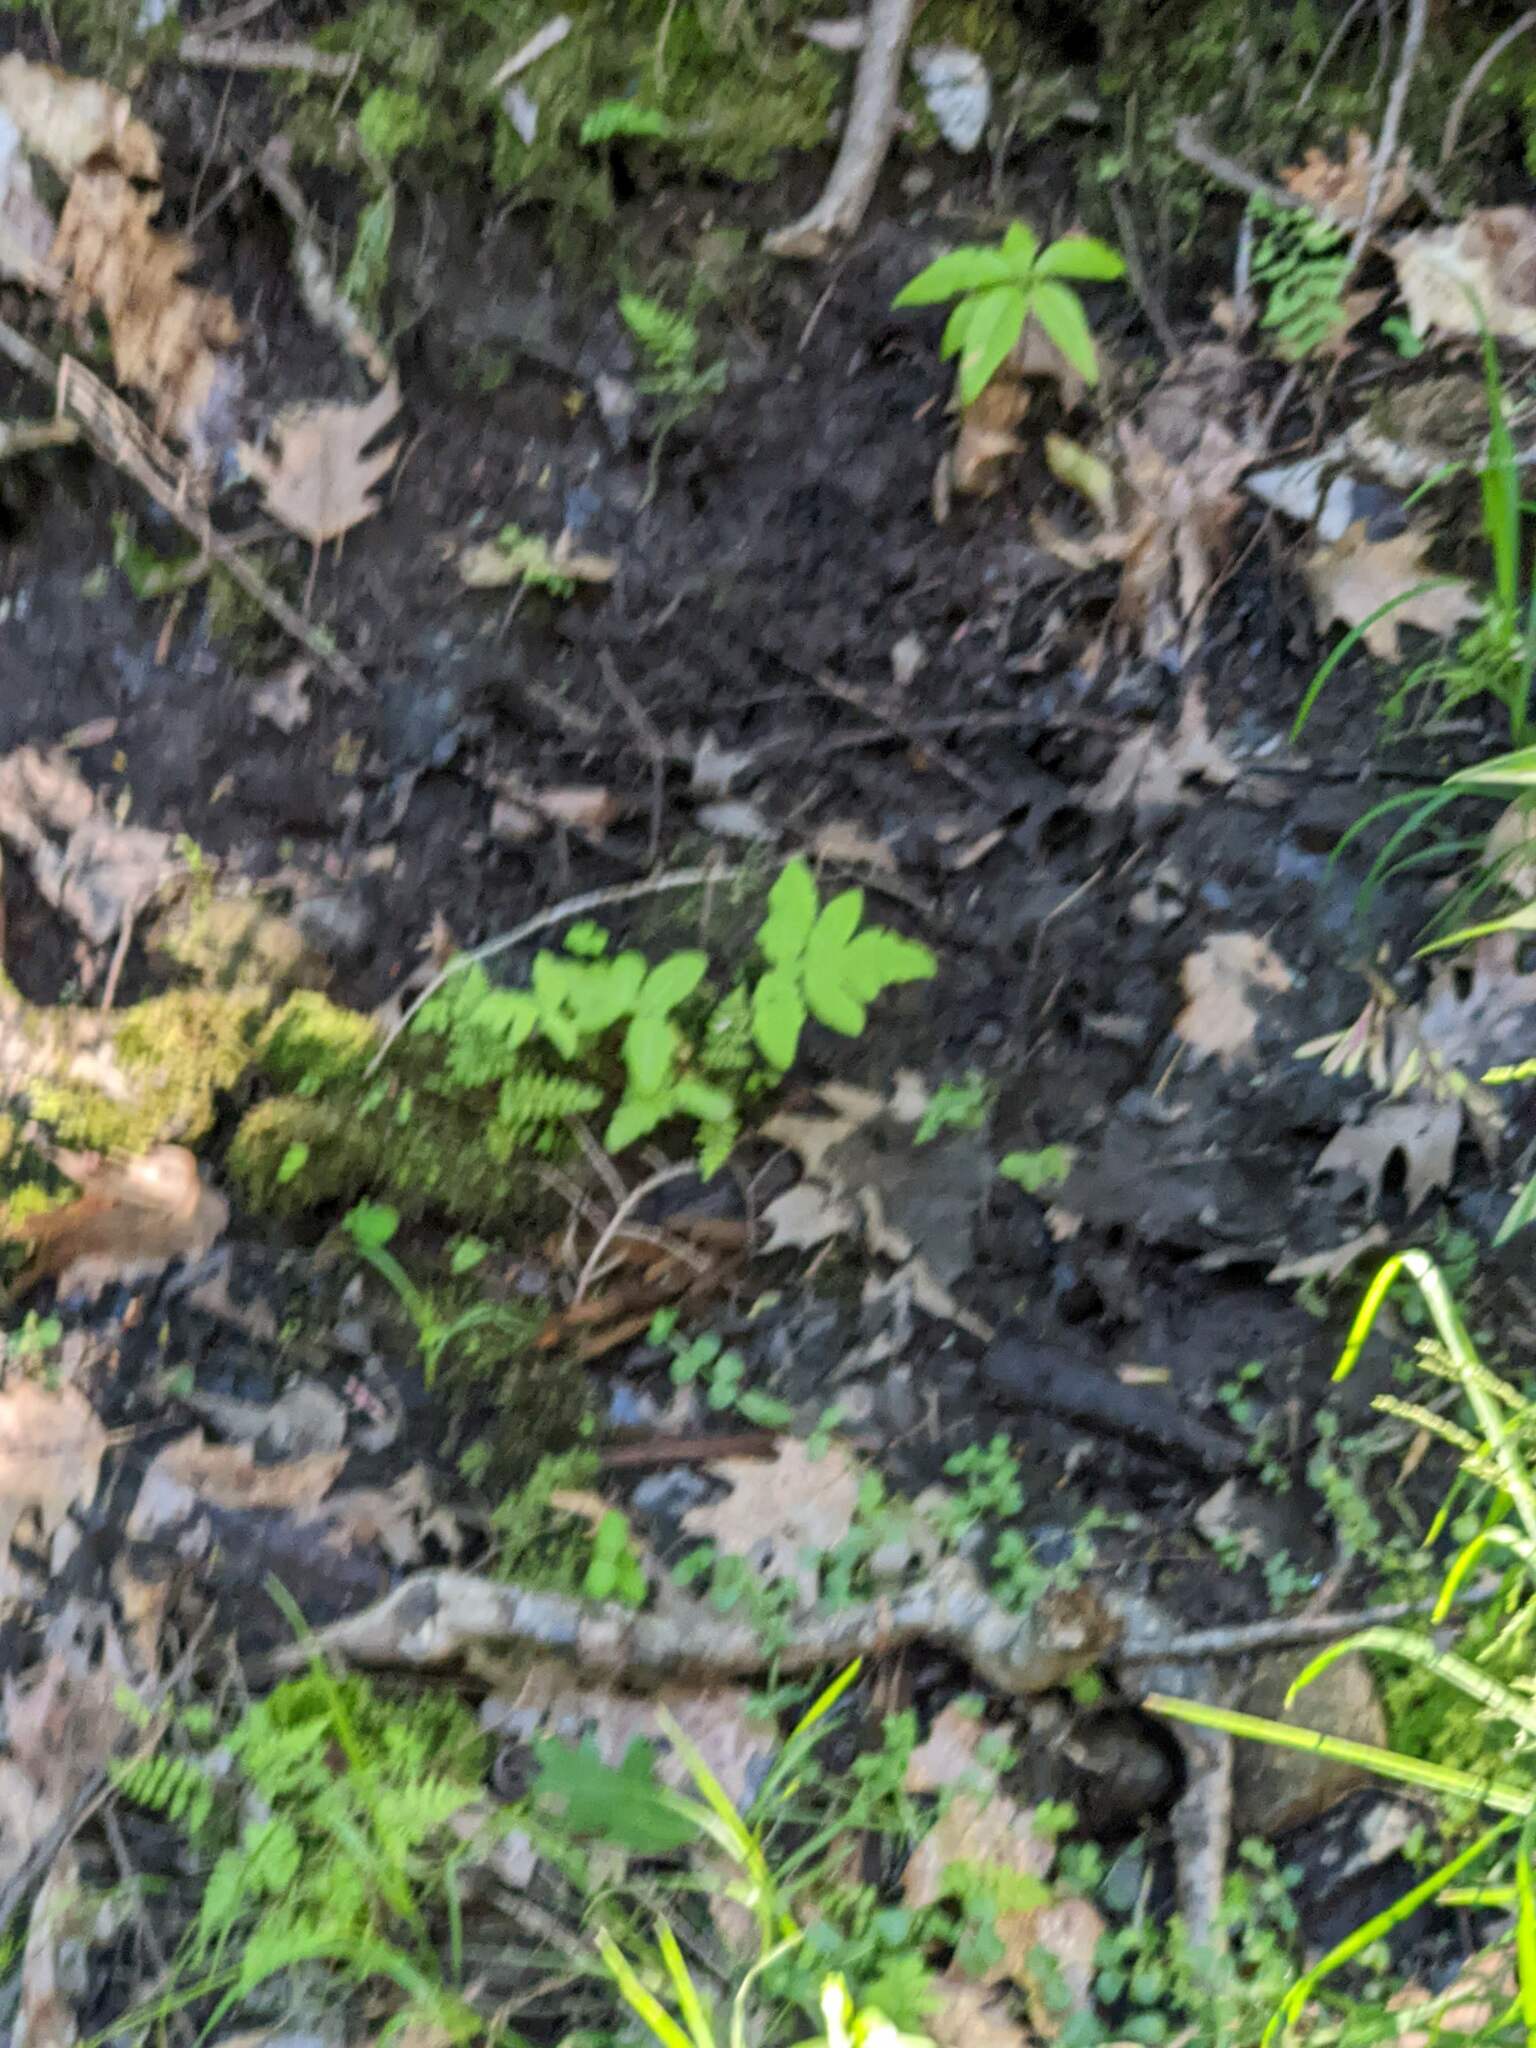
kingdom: Plantae
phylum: Tracheophyta
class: Polypodiopsida
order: Polypodiales
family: Onocleaceae
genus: Onoclea
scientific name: Onoclea sensibilis
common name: Sensitive fern
